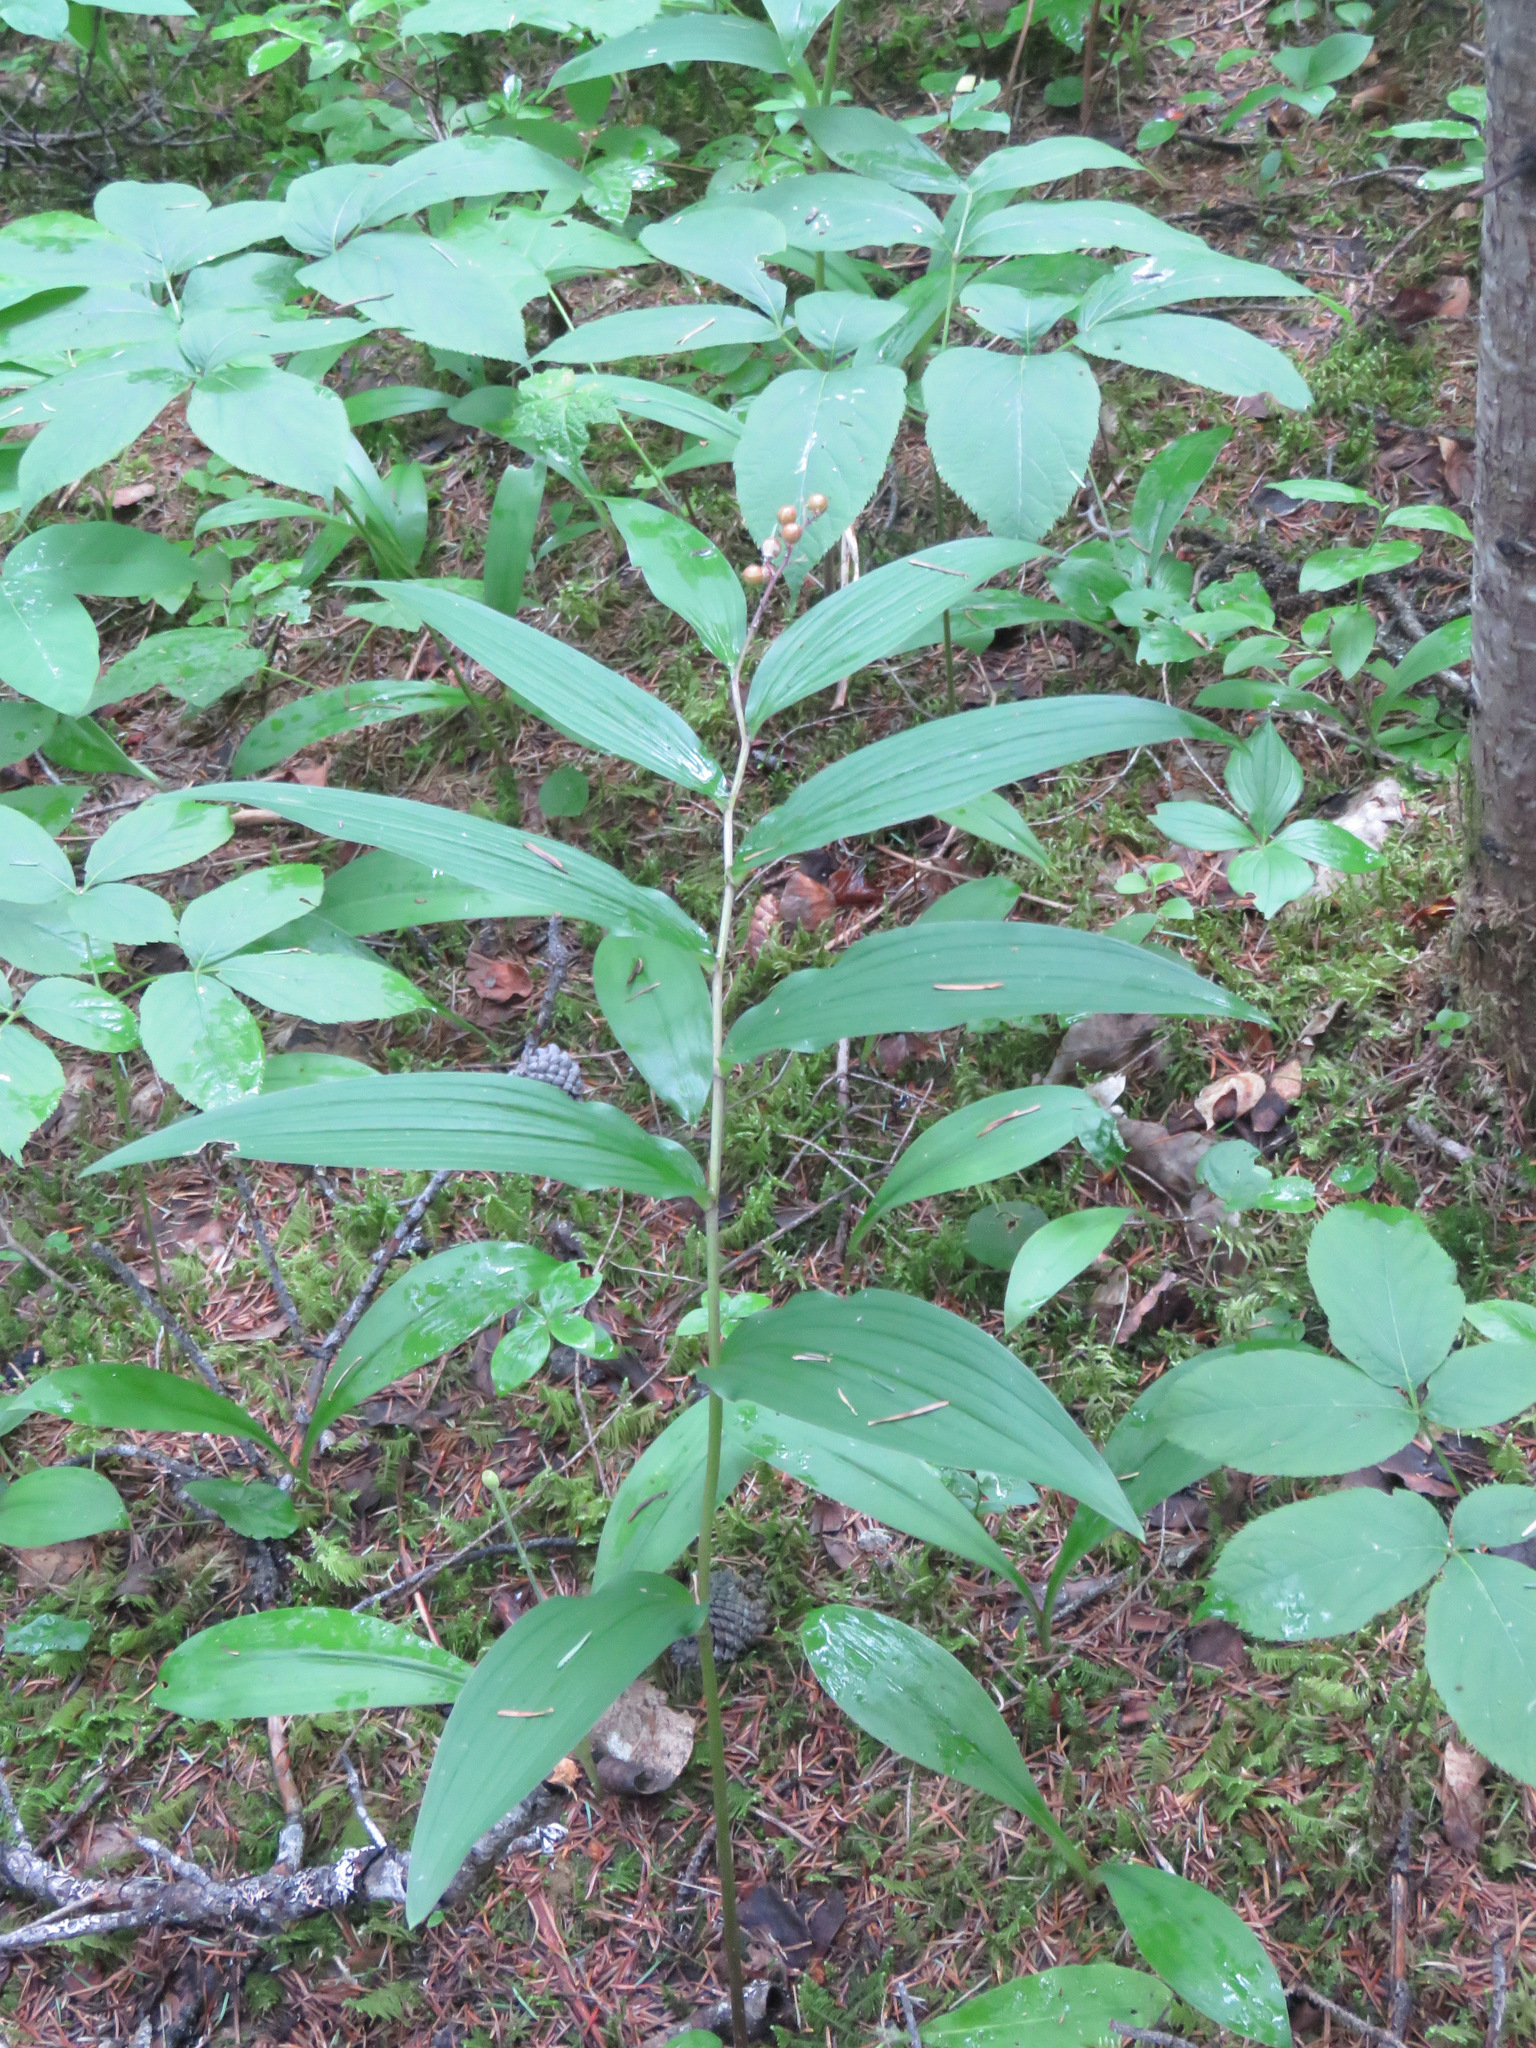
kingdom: Plantae
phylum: Tracheophyta
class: Liliopsida
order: Asparagales
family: Asparagaceae
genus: Maianthemum
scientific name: Maianthemum racemosum
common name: False spikenard
